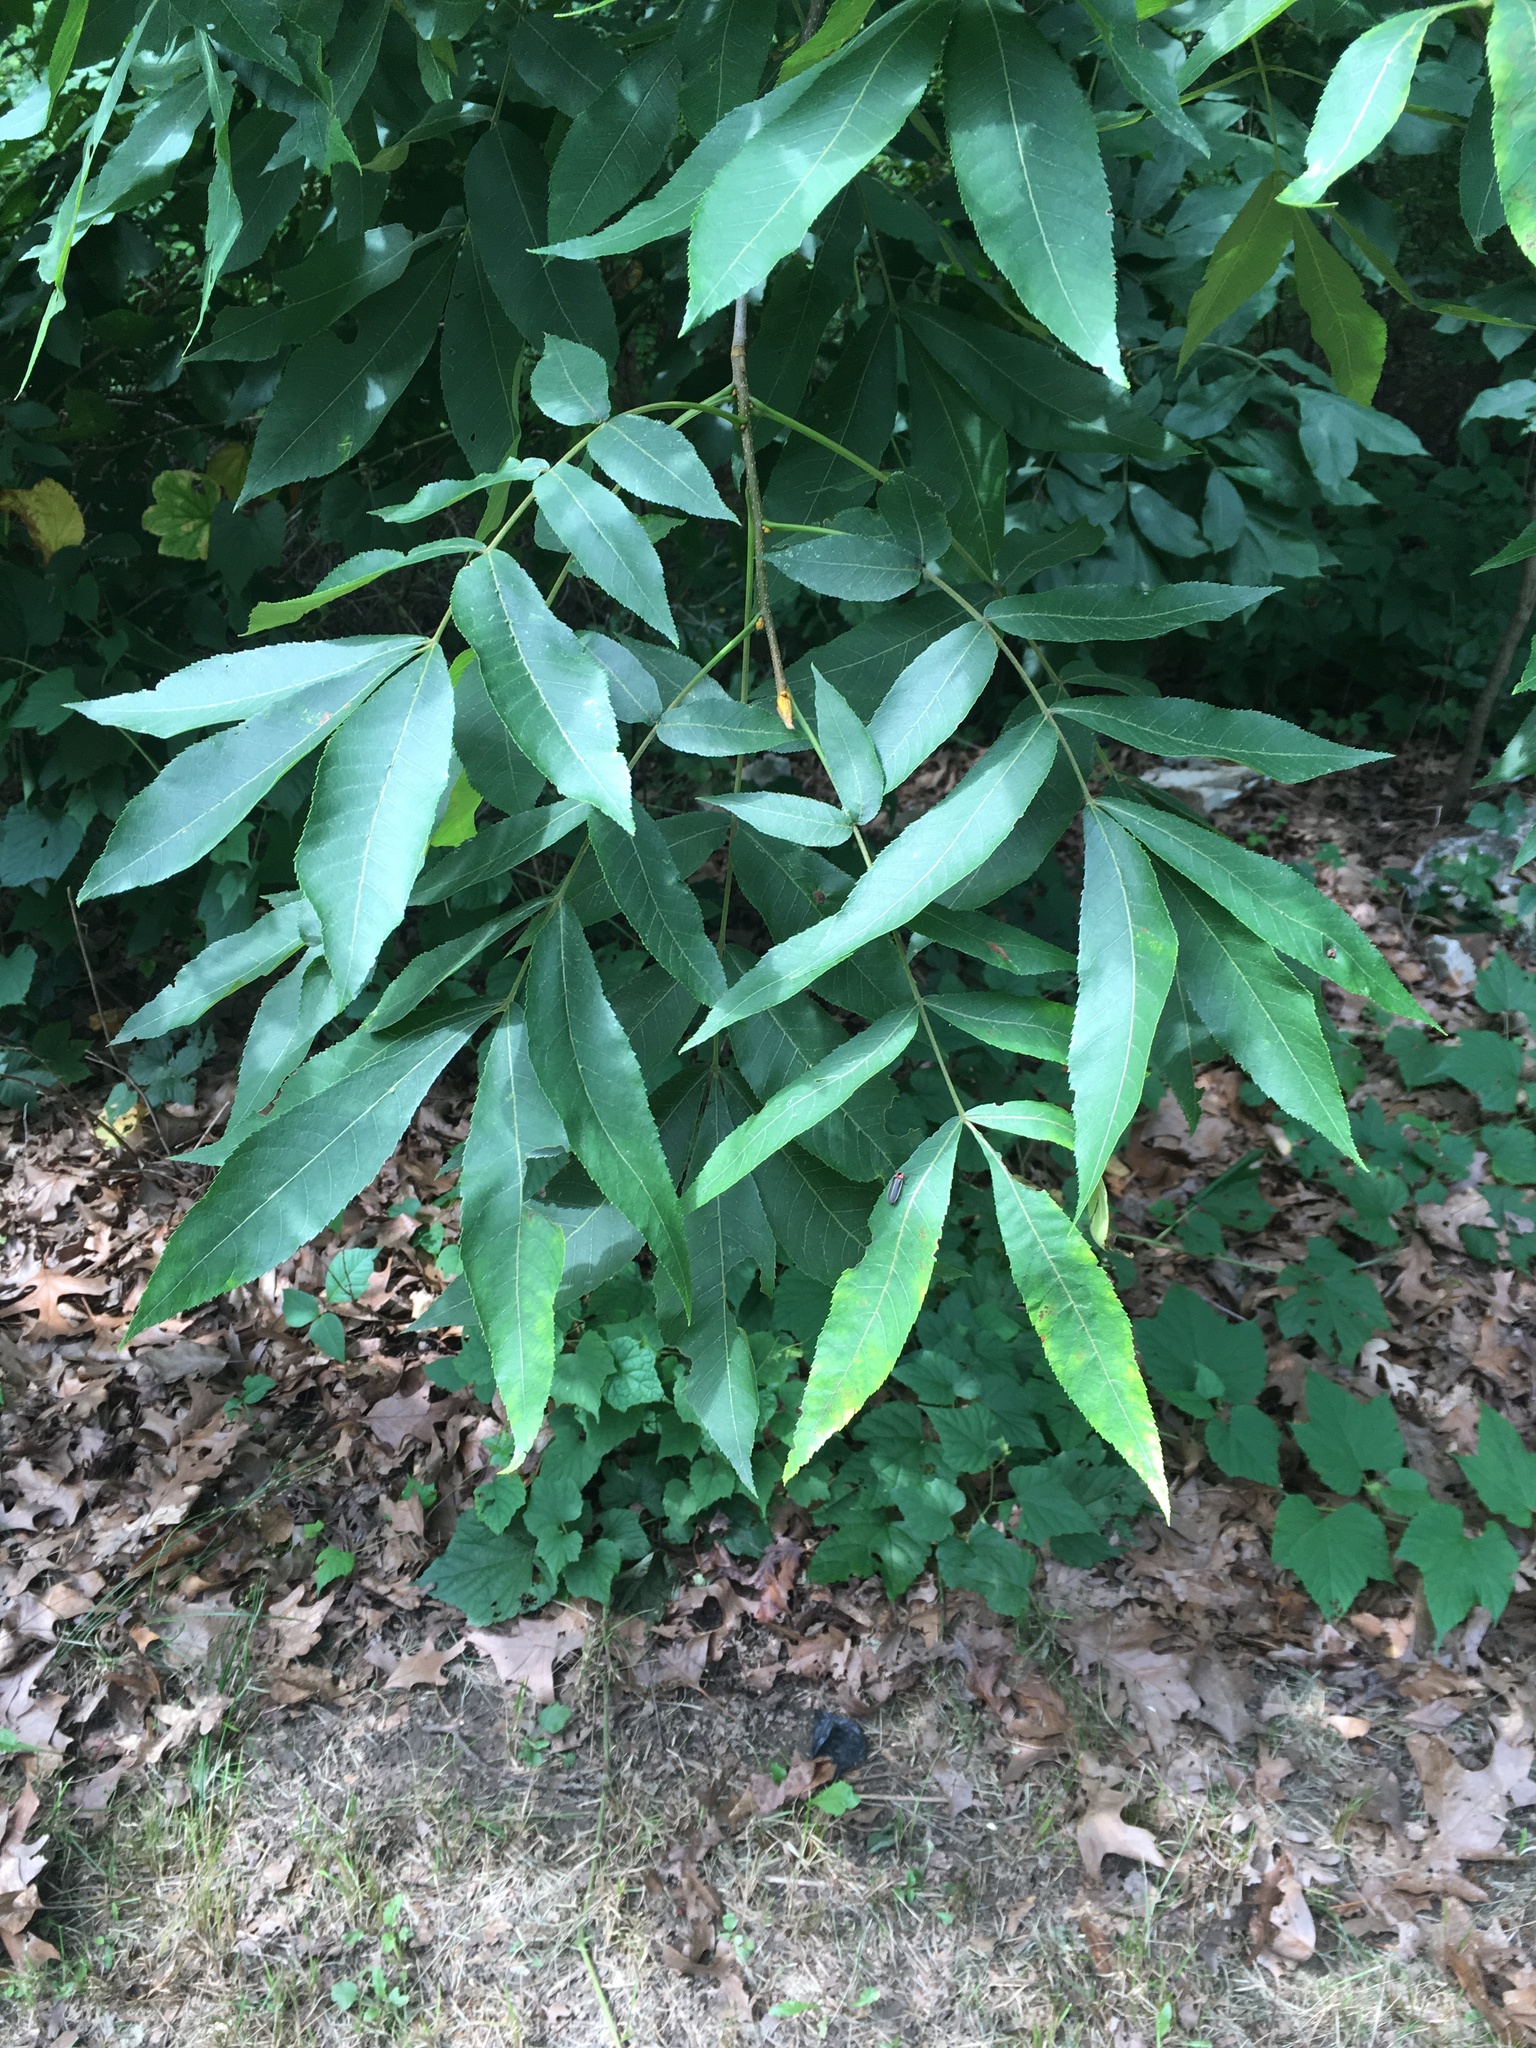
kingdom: Plantae
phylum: Tracheophyta
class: Magnoliopsida
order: Fagales
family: Juglandaceae
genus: Carya
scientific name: Carya cordiformis
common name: Bitternut hickory
